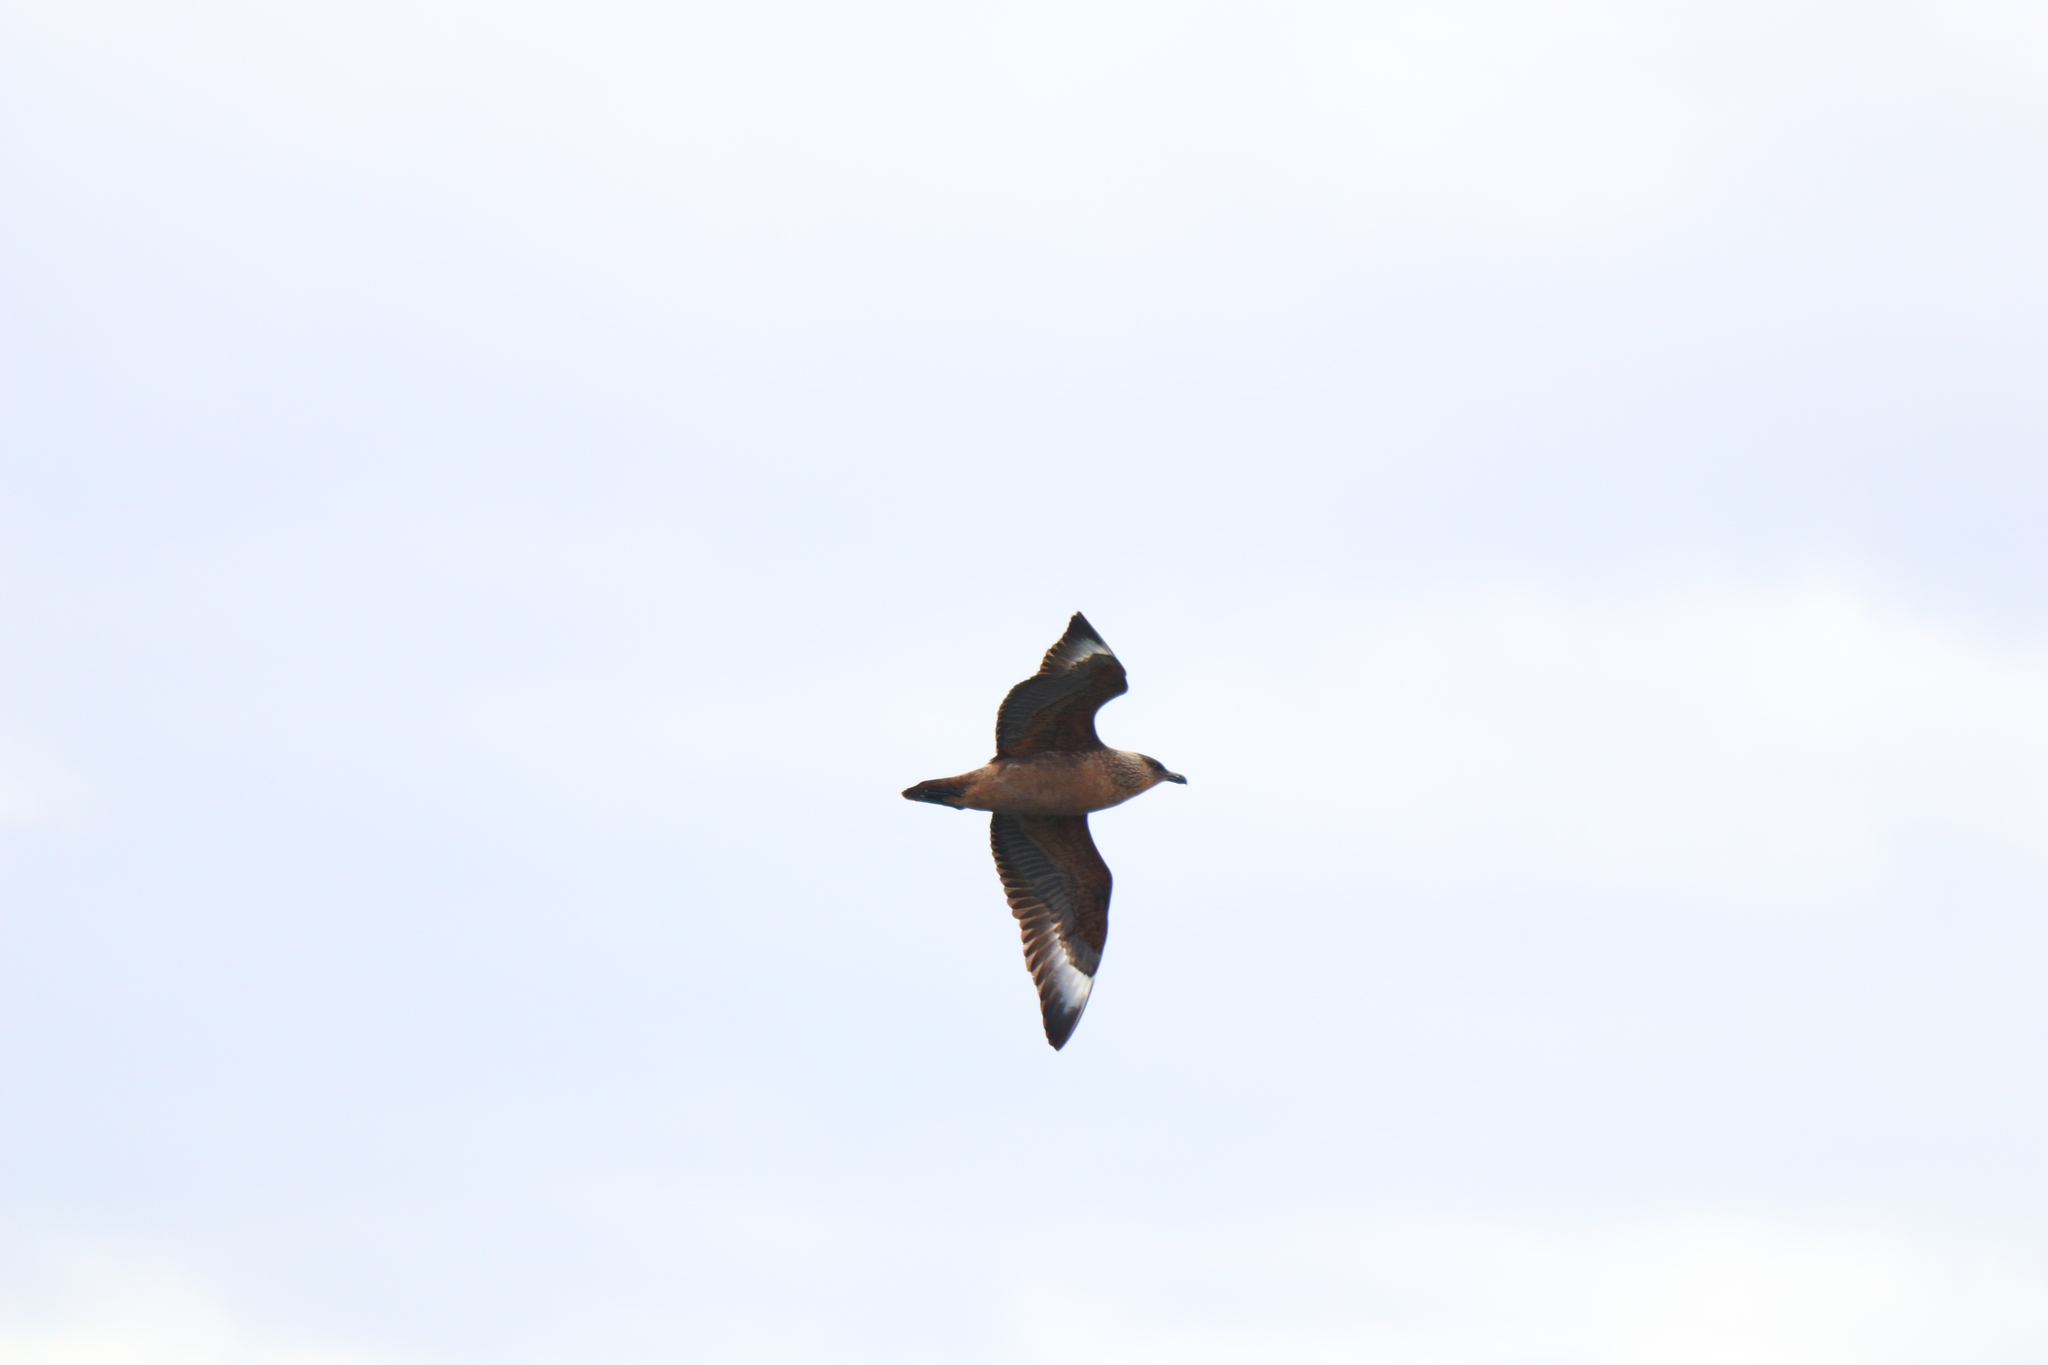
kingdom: Animalia
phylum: Chordata
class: Aves
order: Charadriiformes
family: Stercorariidae
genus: Stercorarius
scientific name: Stercorarius chilensis
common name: Chilean skua
